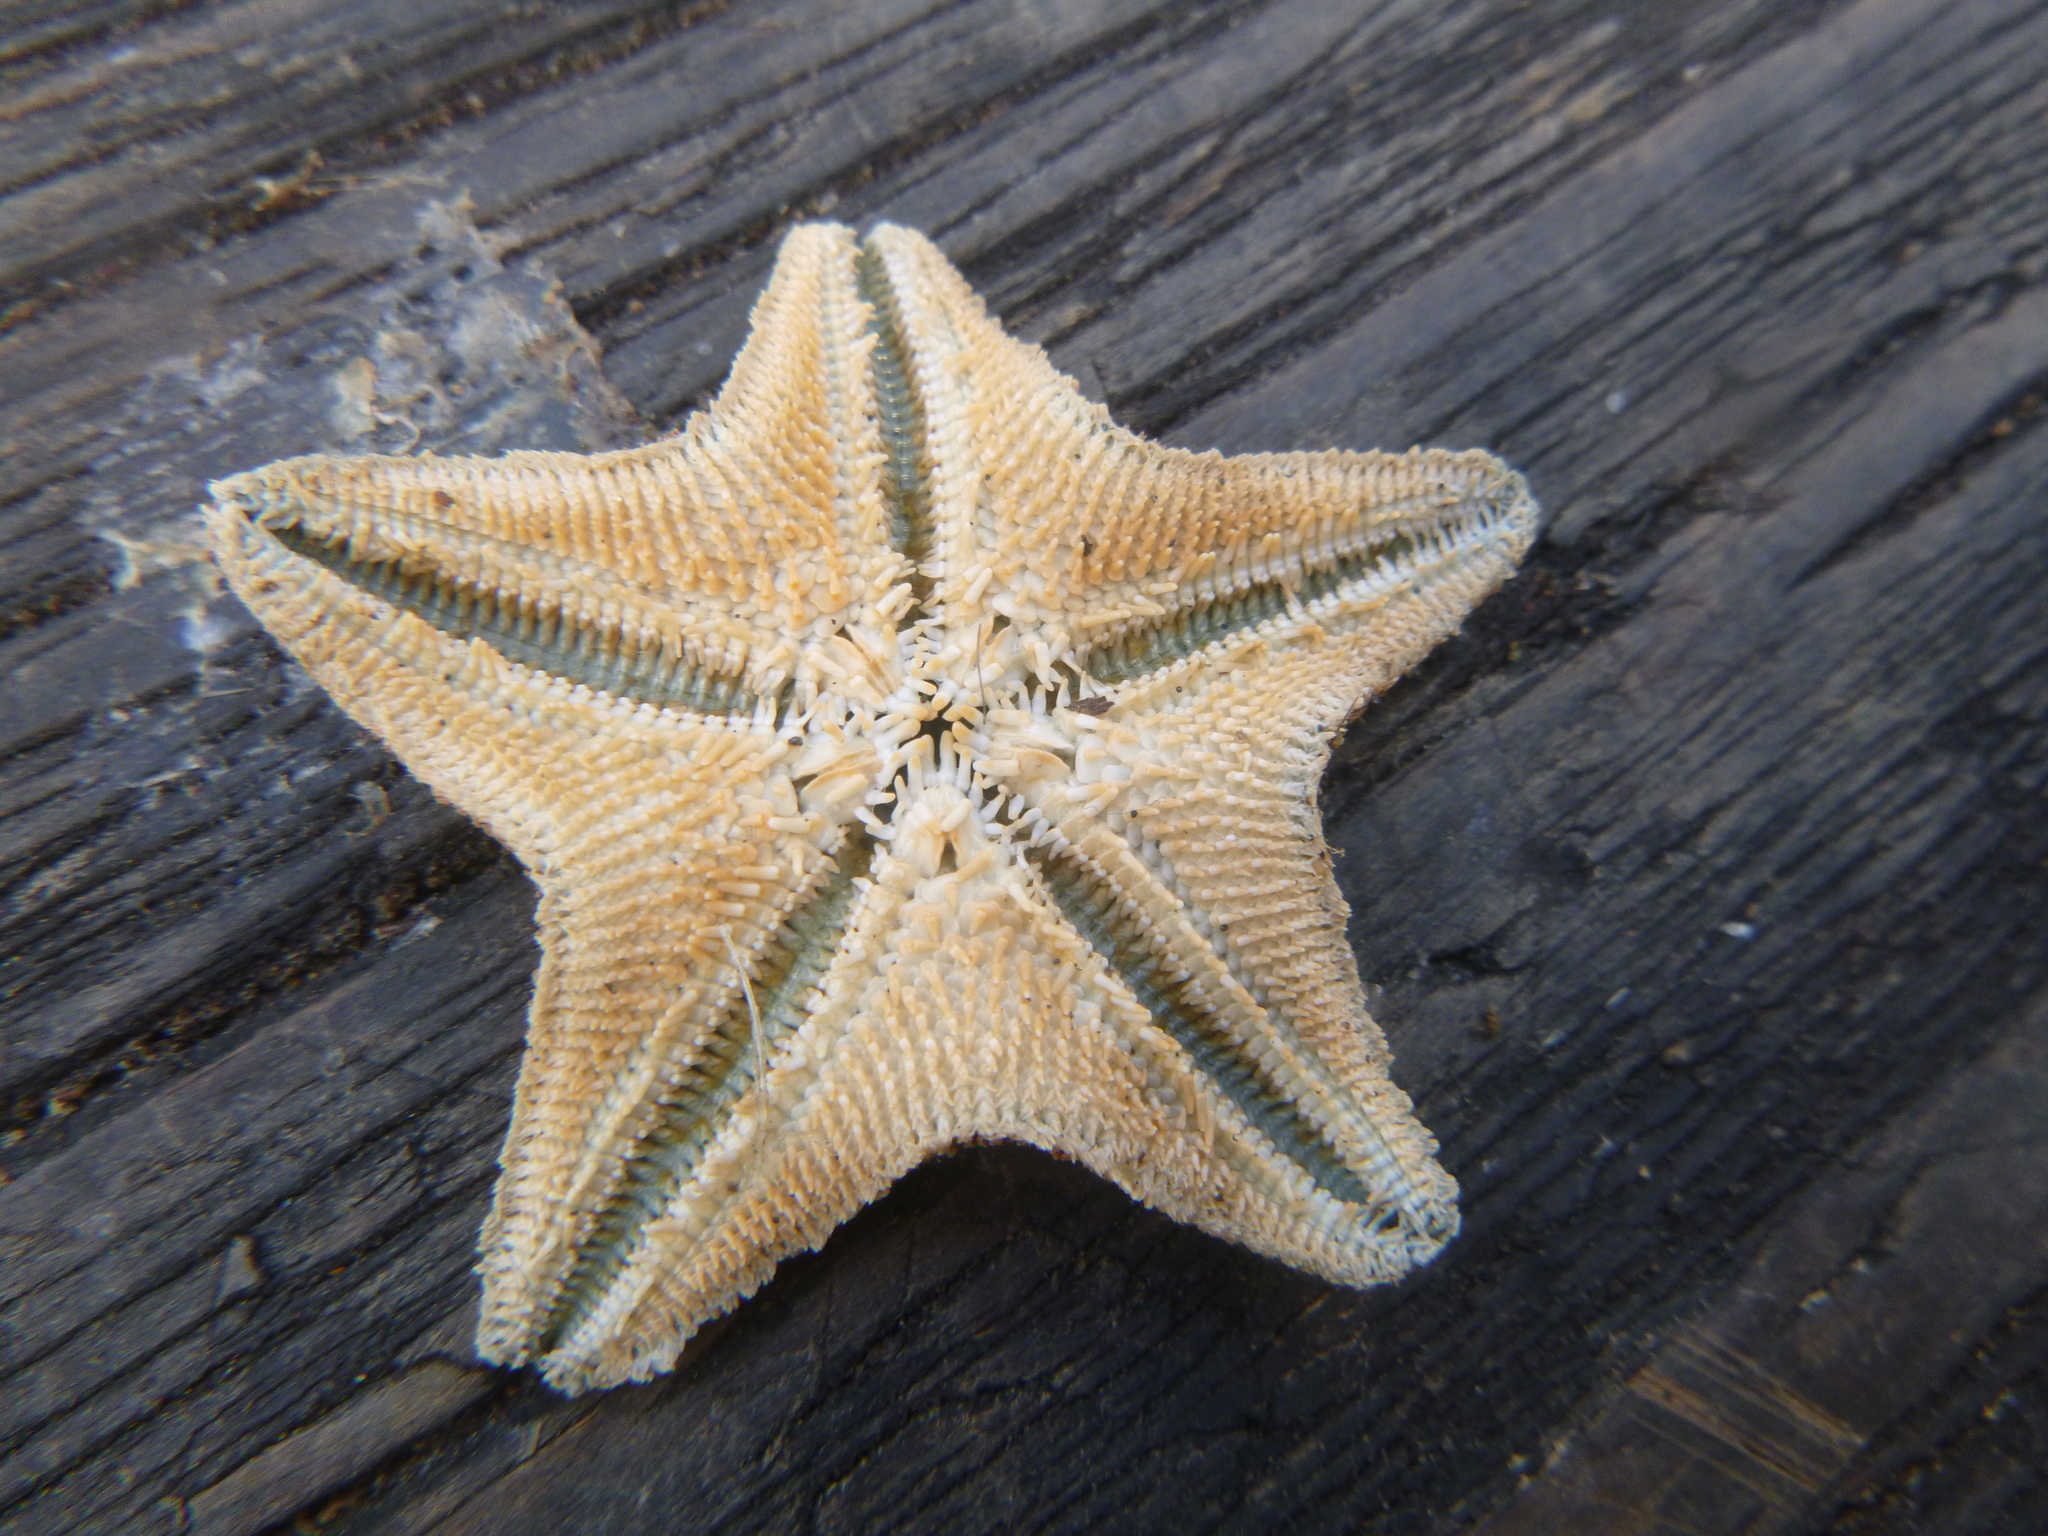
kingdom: Animalia
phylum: Echinodermata
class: Asteroidea
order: Valvatida
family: Asterinidae
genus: Patiriella
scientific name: Patiriella regularis
